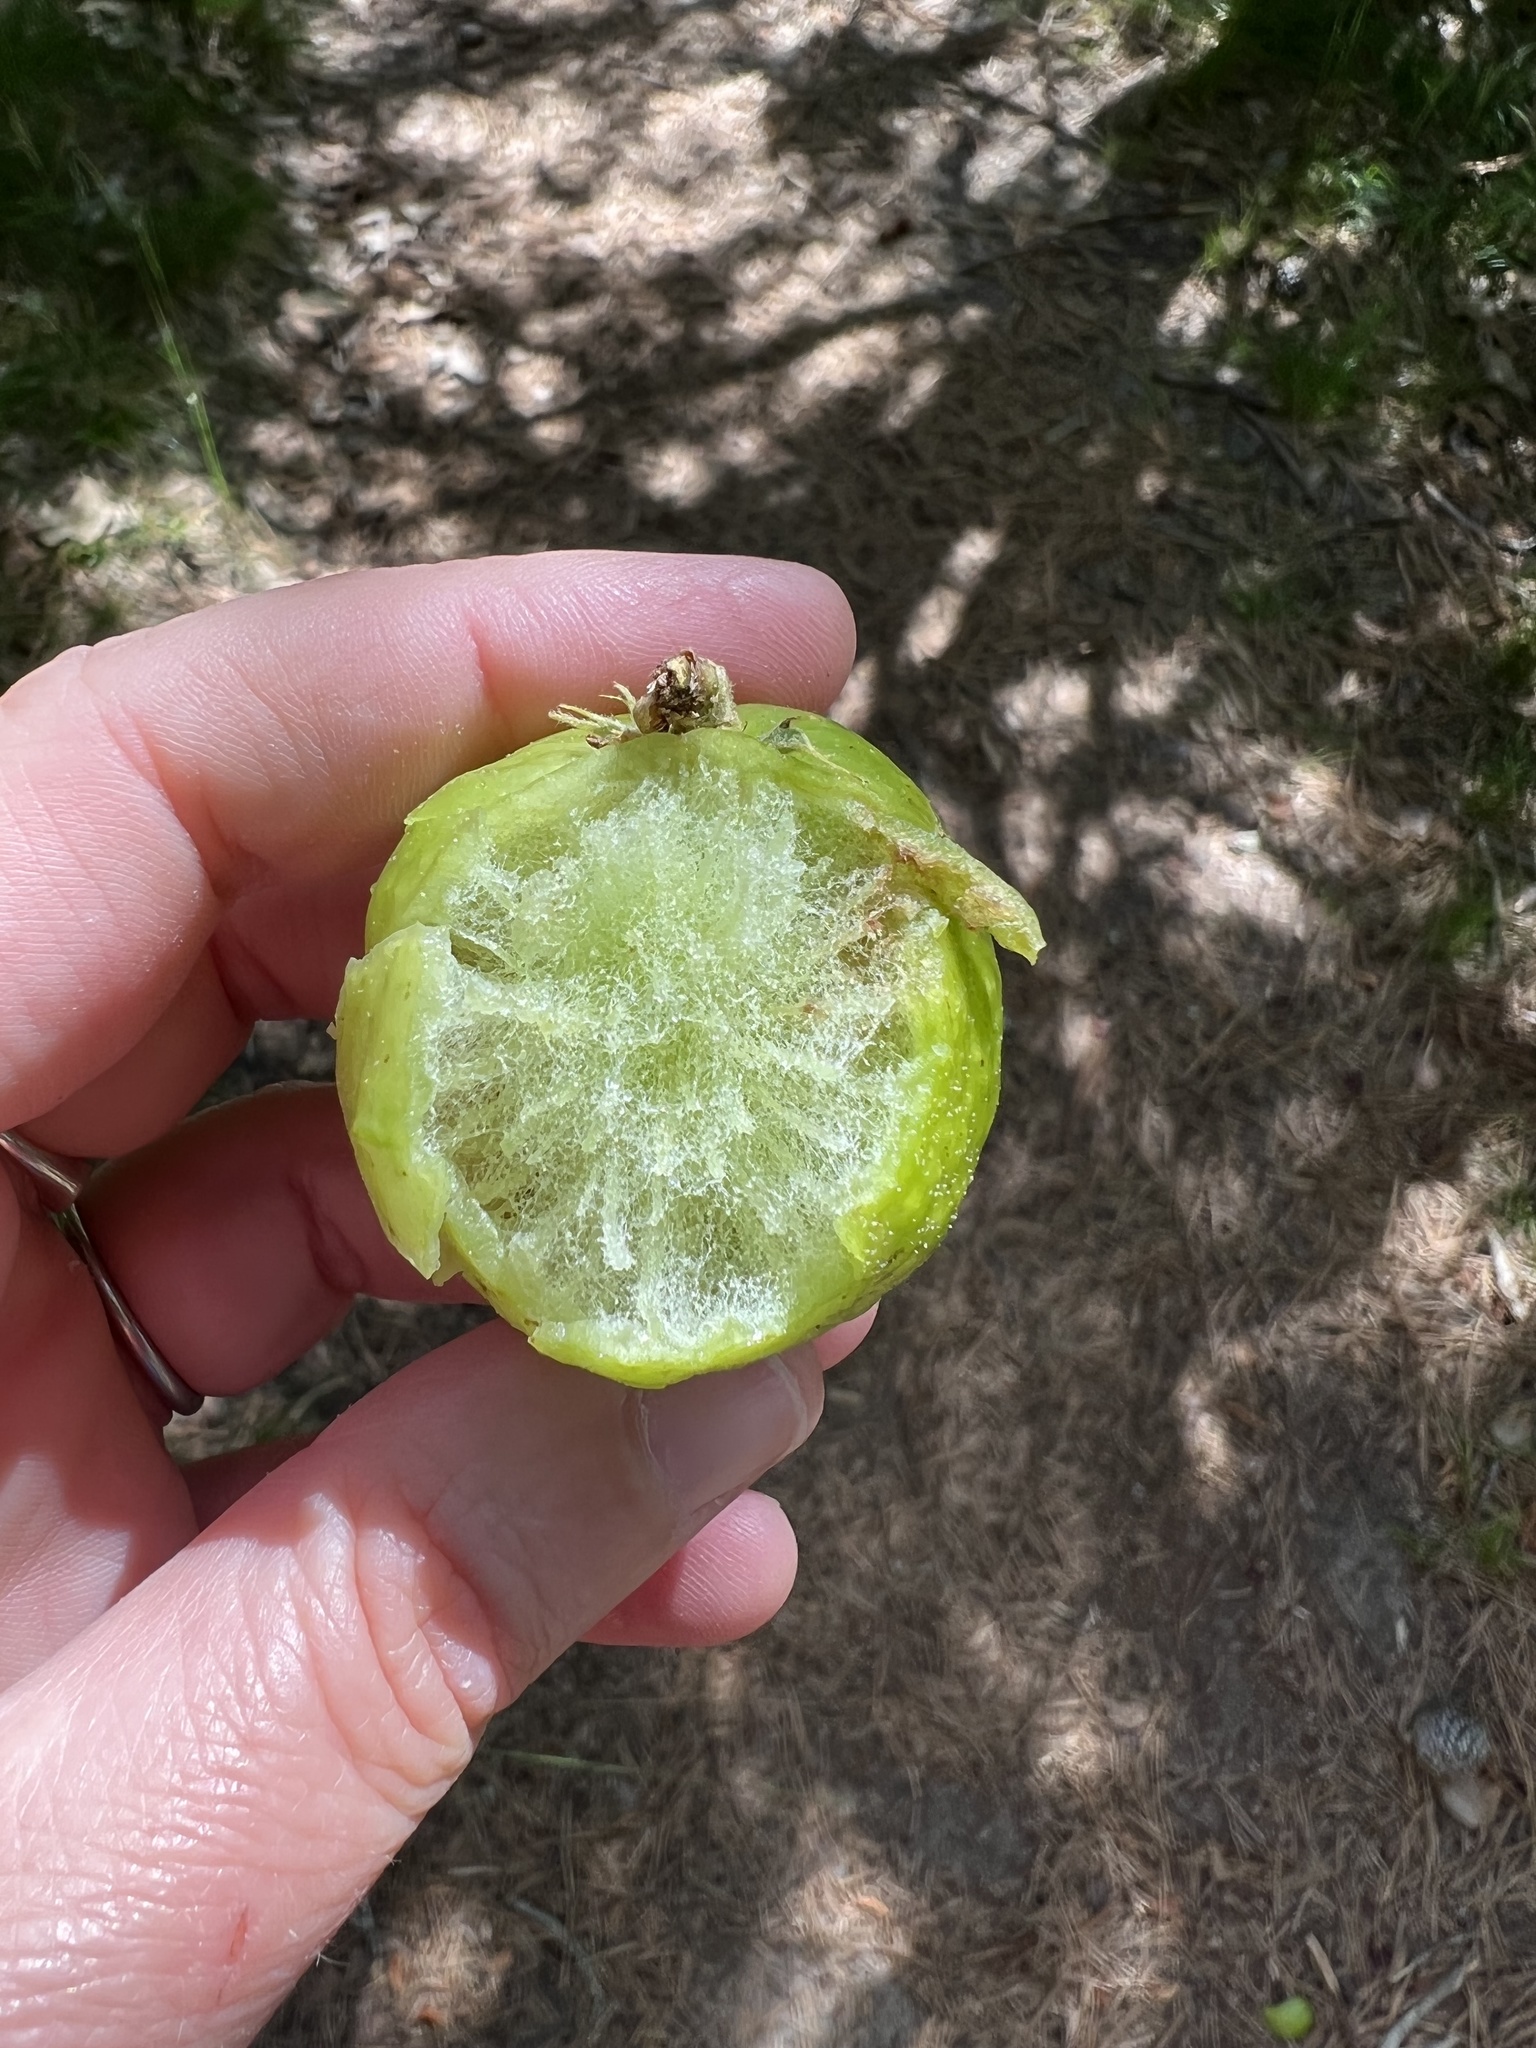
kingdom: Animalia
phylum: Arthropoda
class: Insecta
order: Hymenoptera
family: Cynipidae
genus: Amphibolips
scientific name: Amphibolips
